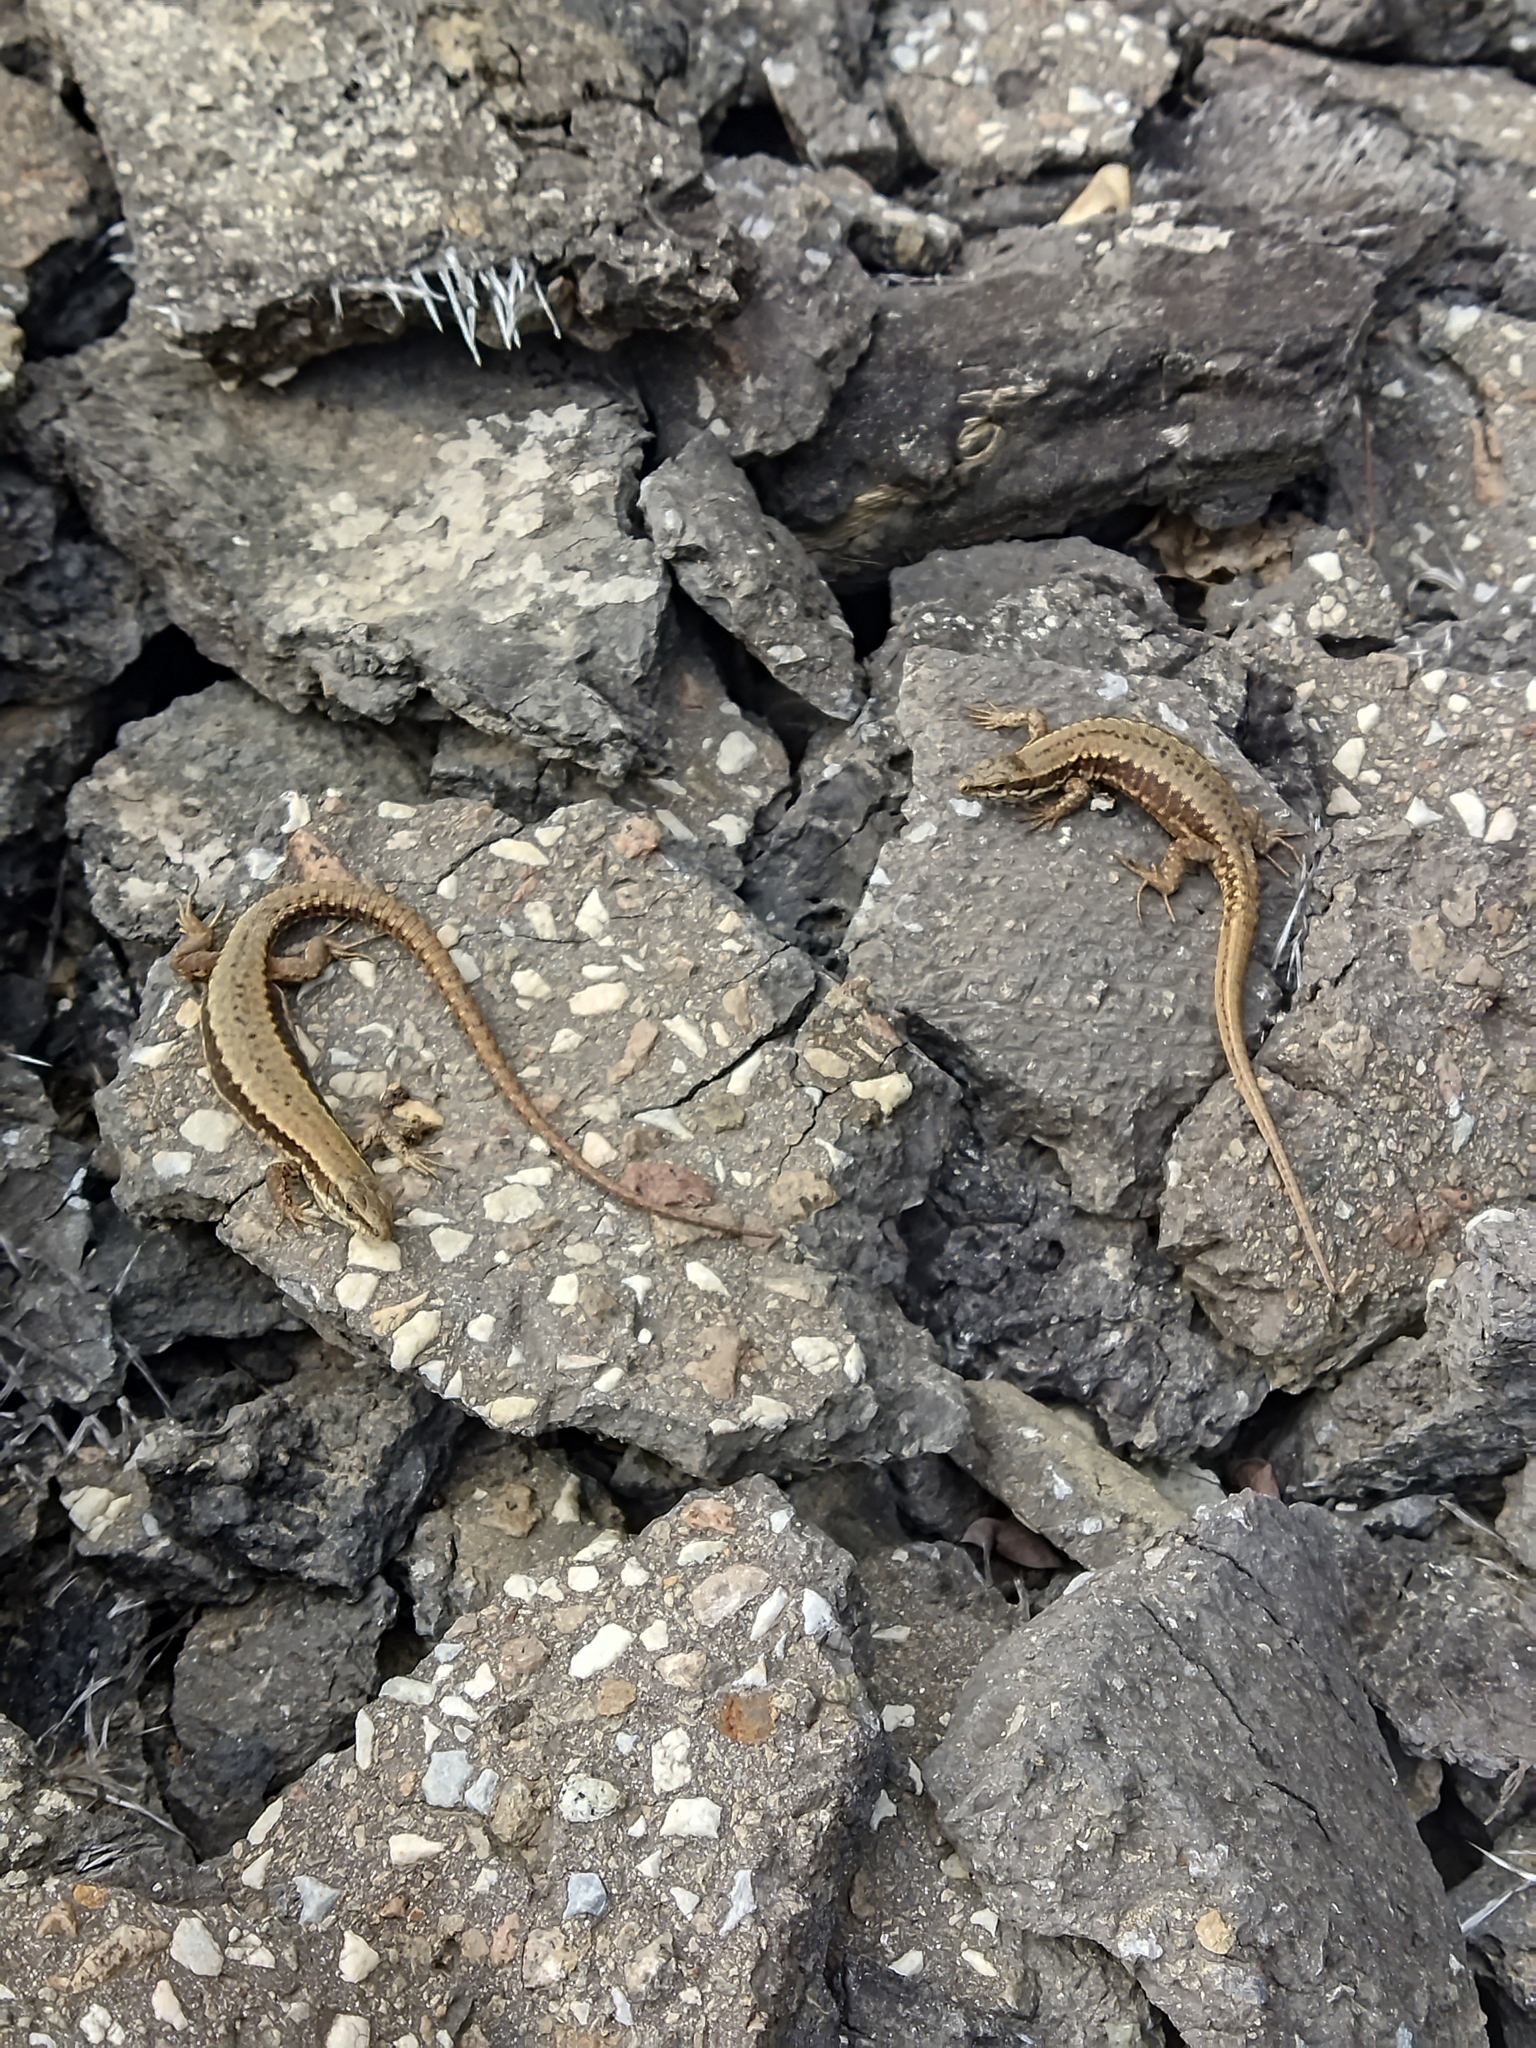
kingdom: Animalia
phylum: Chordata
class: Squamata
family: Lacertidae
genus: Podarcis
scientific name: Podarcis muralis
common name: Common wall lizard
